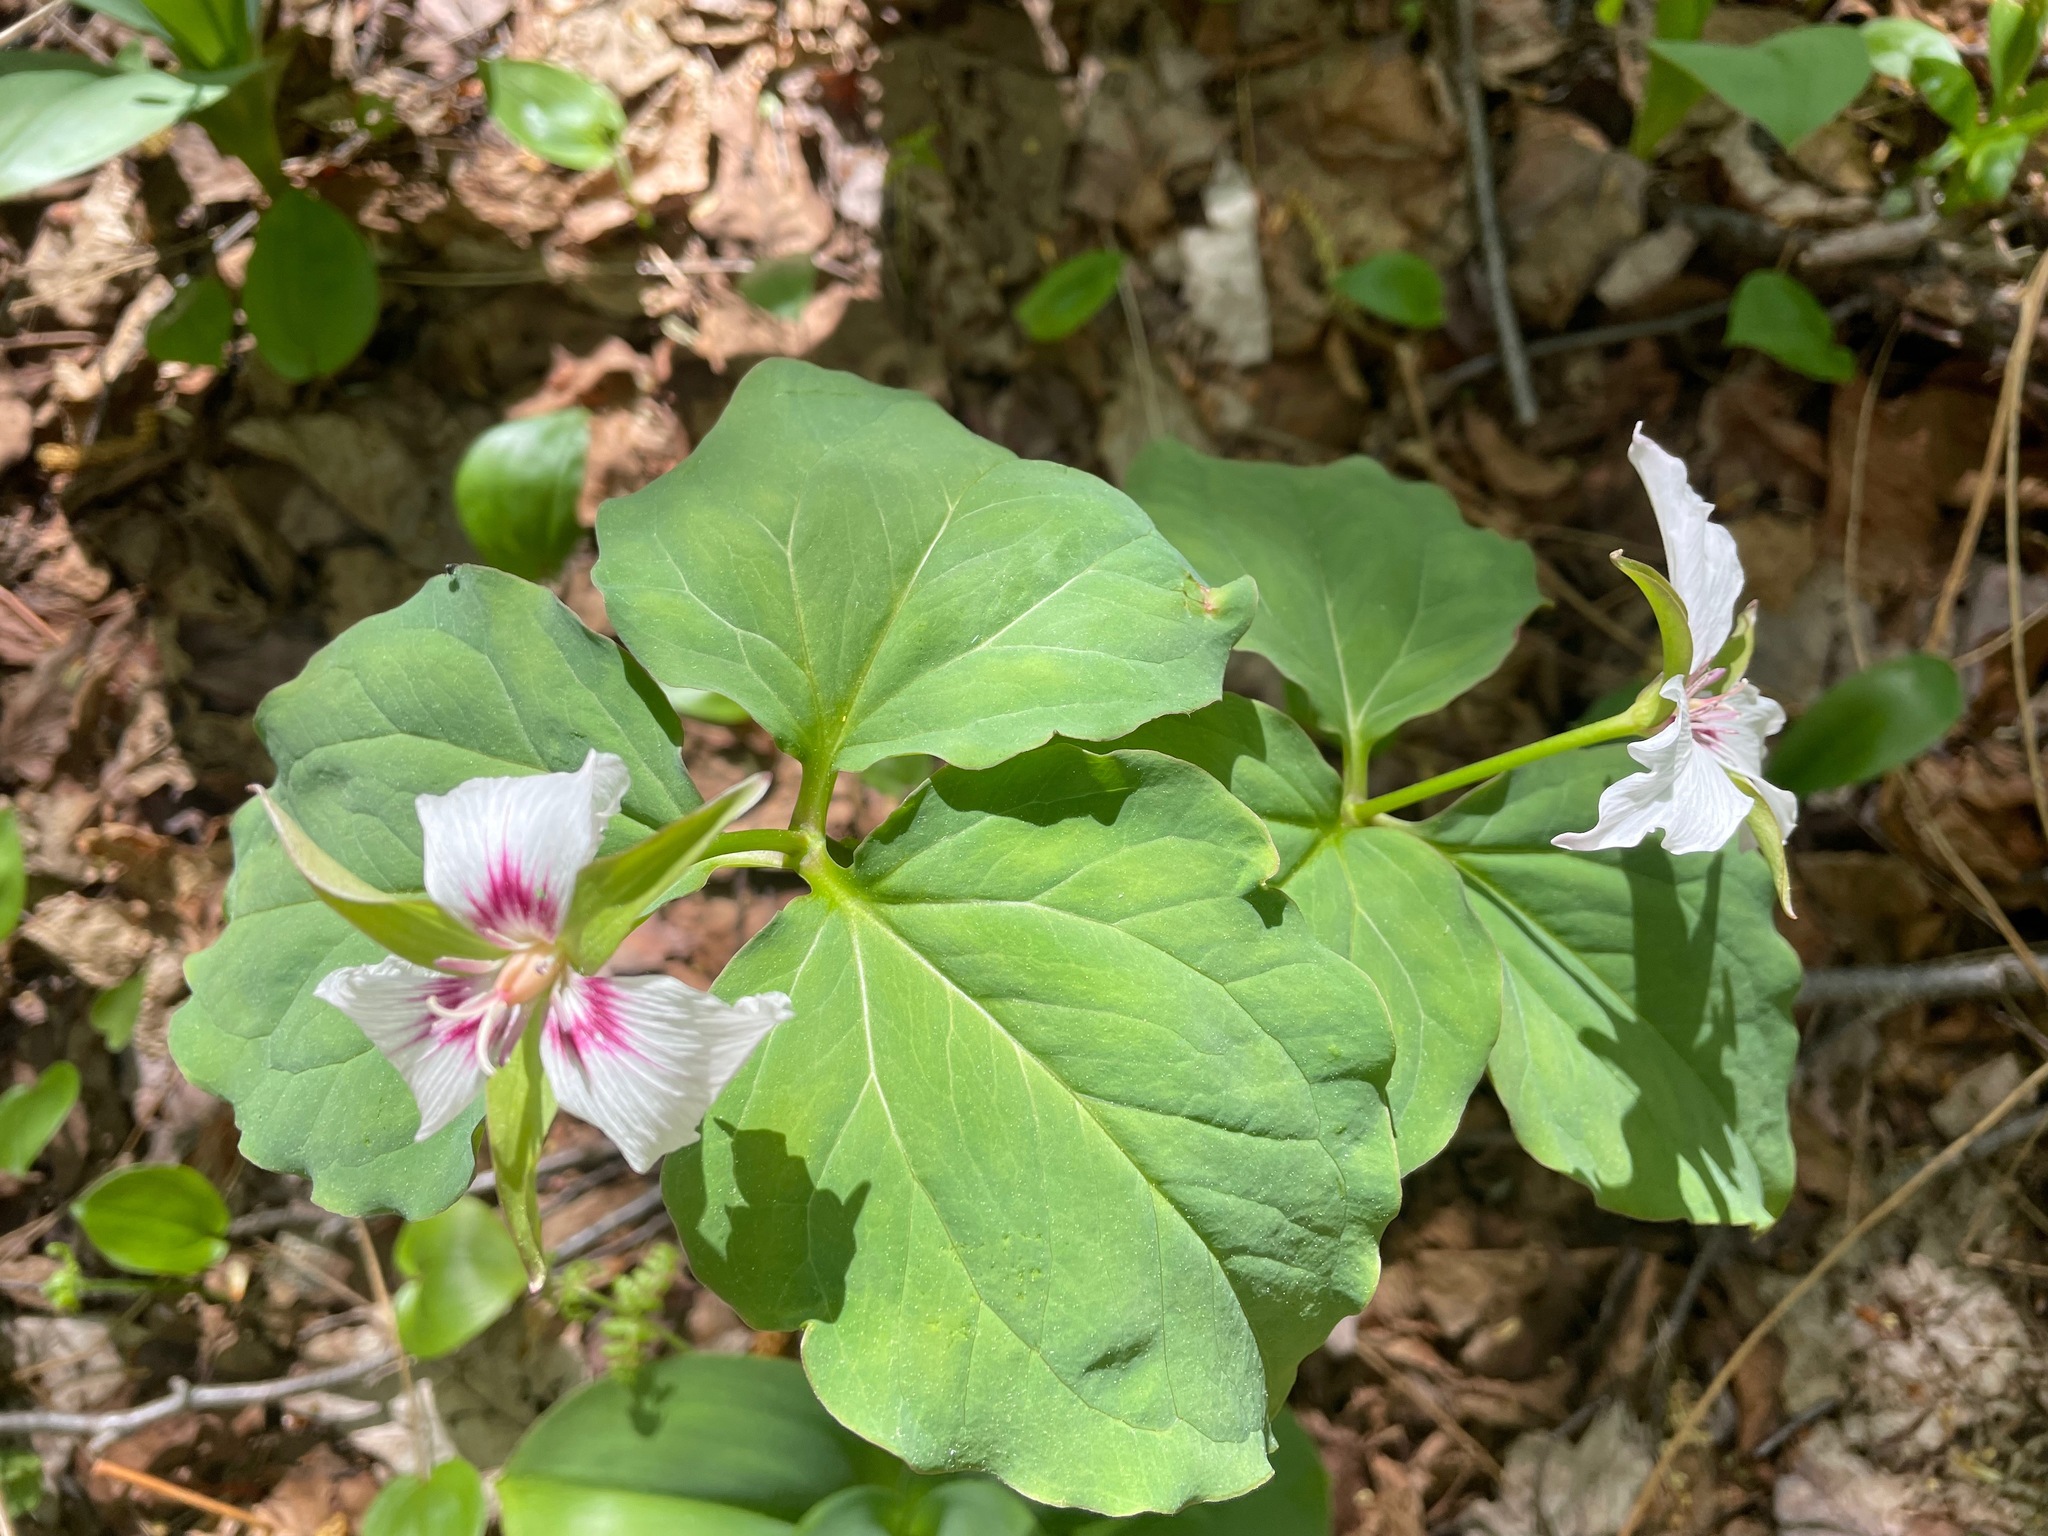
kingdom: Plantae
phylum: Tracheophyta
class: Liliopsida
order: Liliales
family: Melanthiaceae
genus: Trillium
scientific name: Trillium undulatum
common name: Paint trillium
